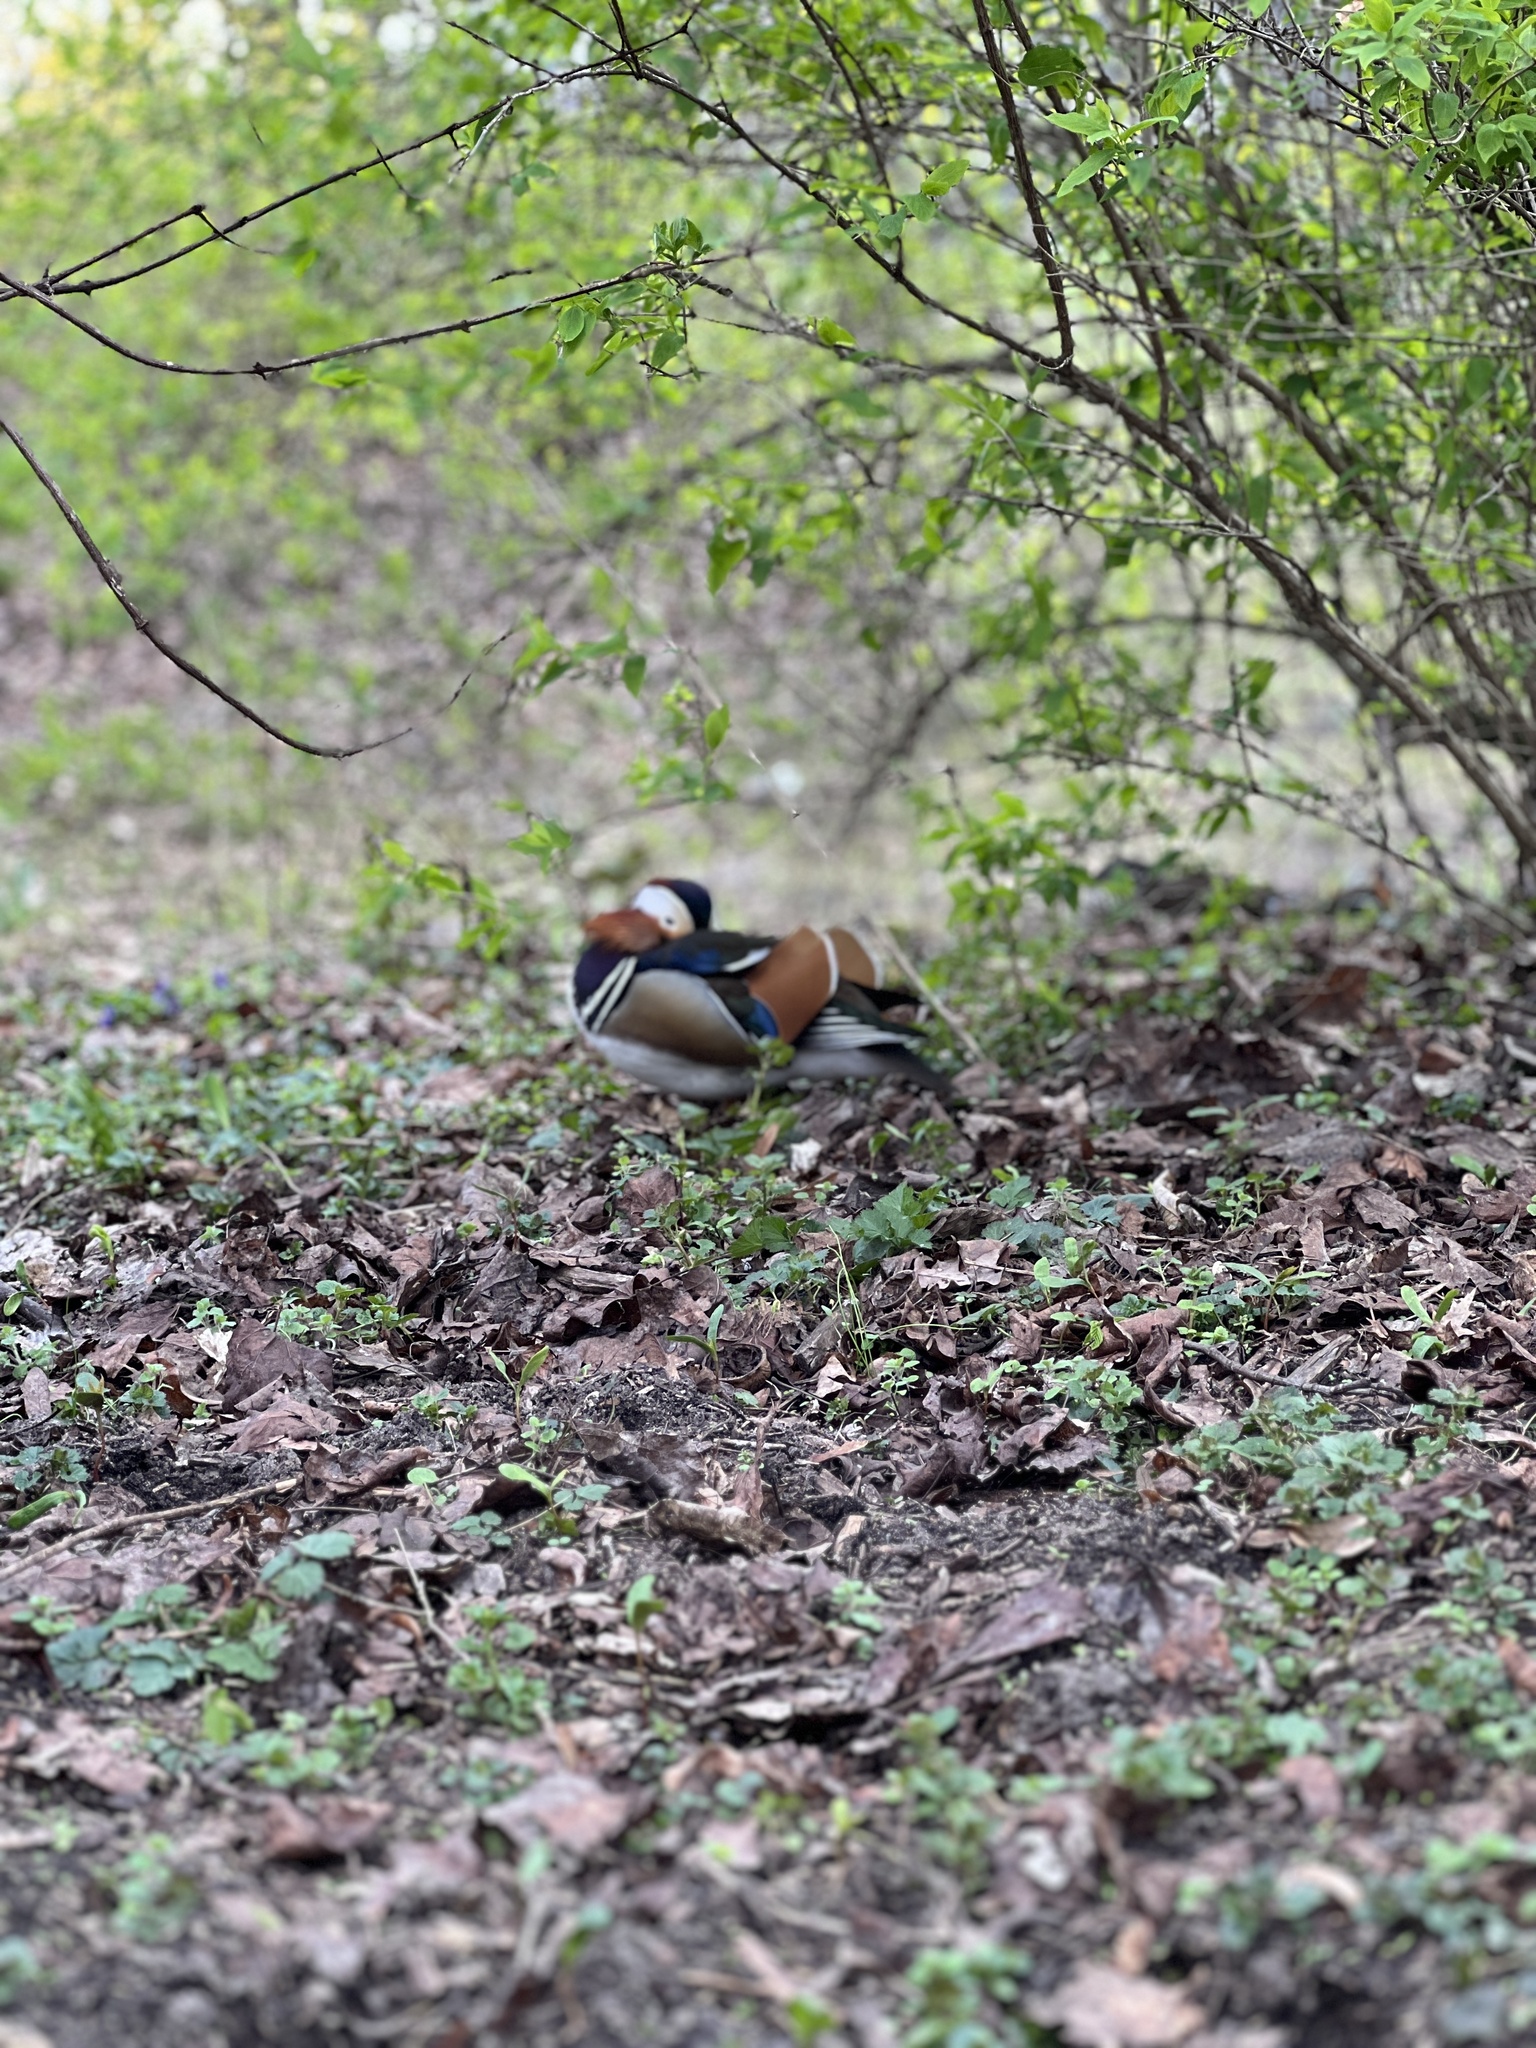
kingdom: Animalia
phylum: Chordata
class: Aves
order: Anseriformes
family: Anatidae
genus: Aix
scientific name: Aix galericulata
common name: Mandarin duck
